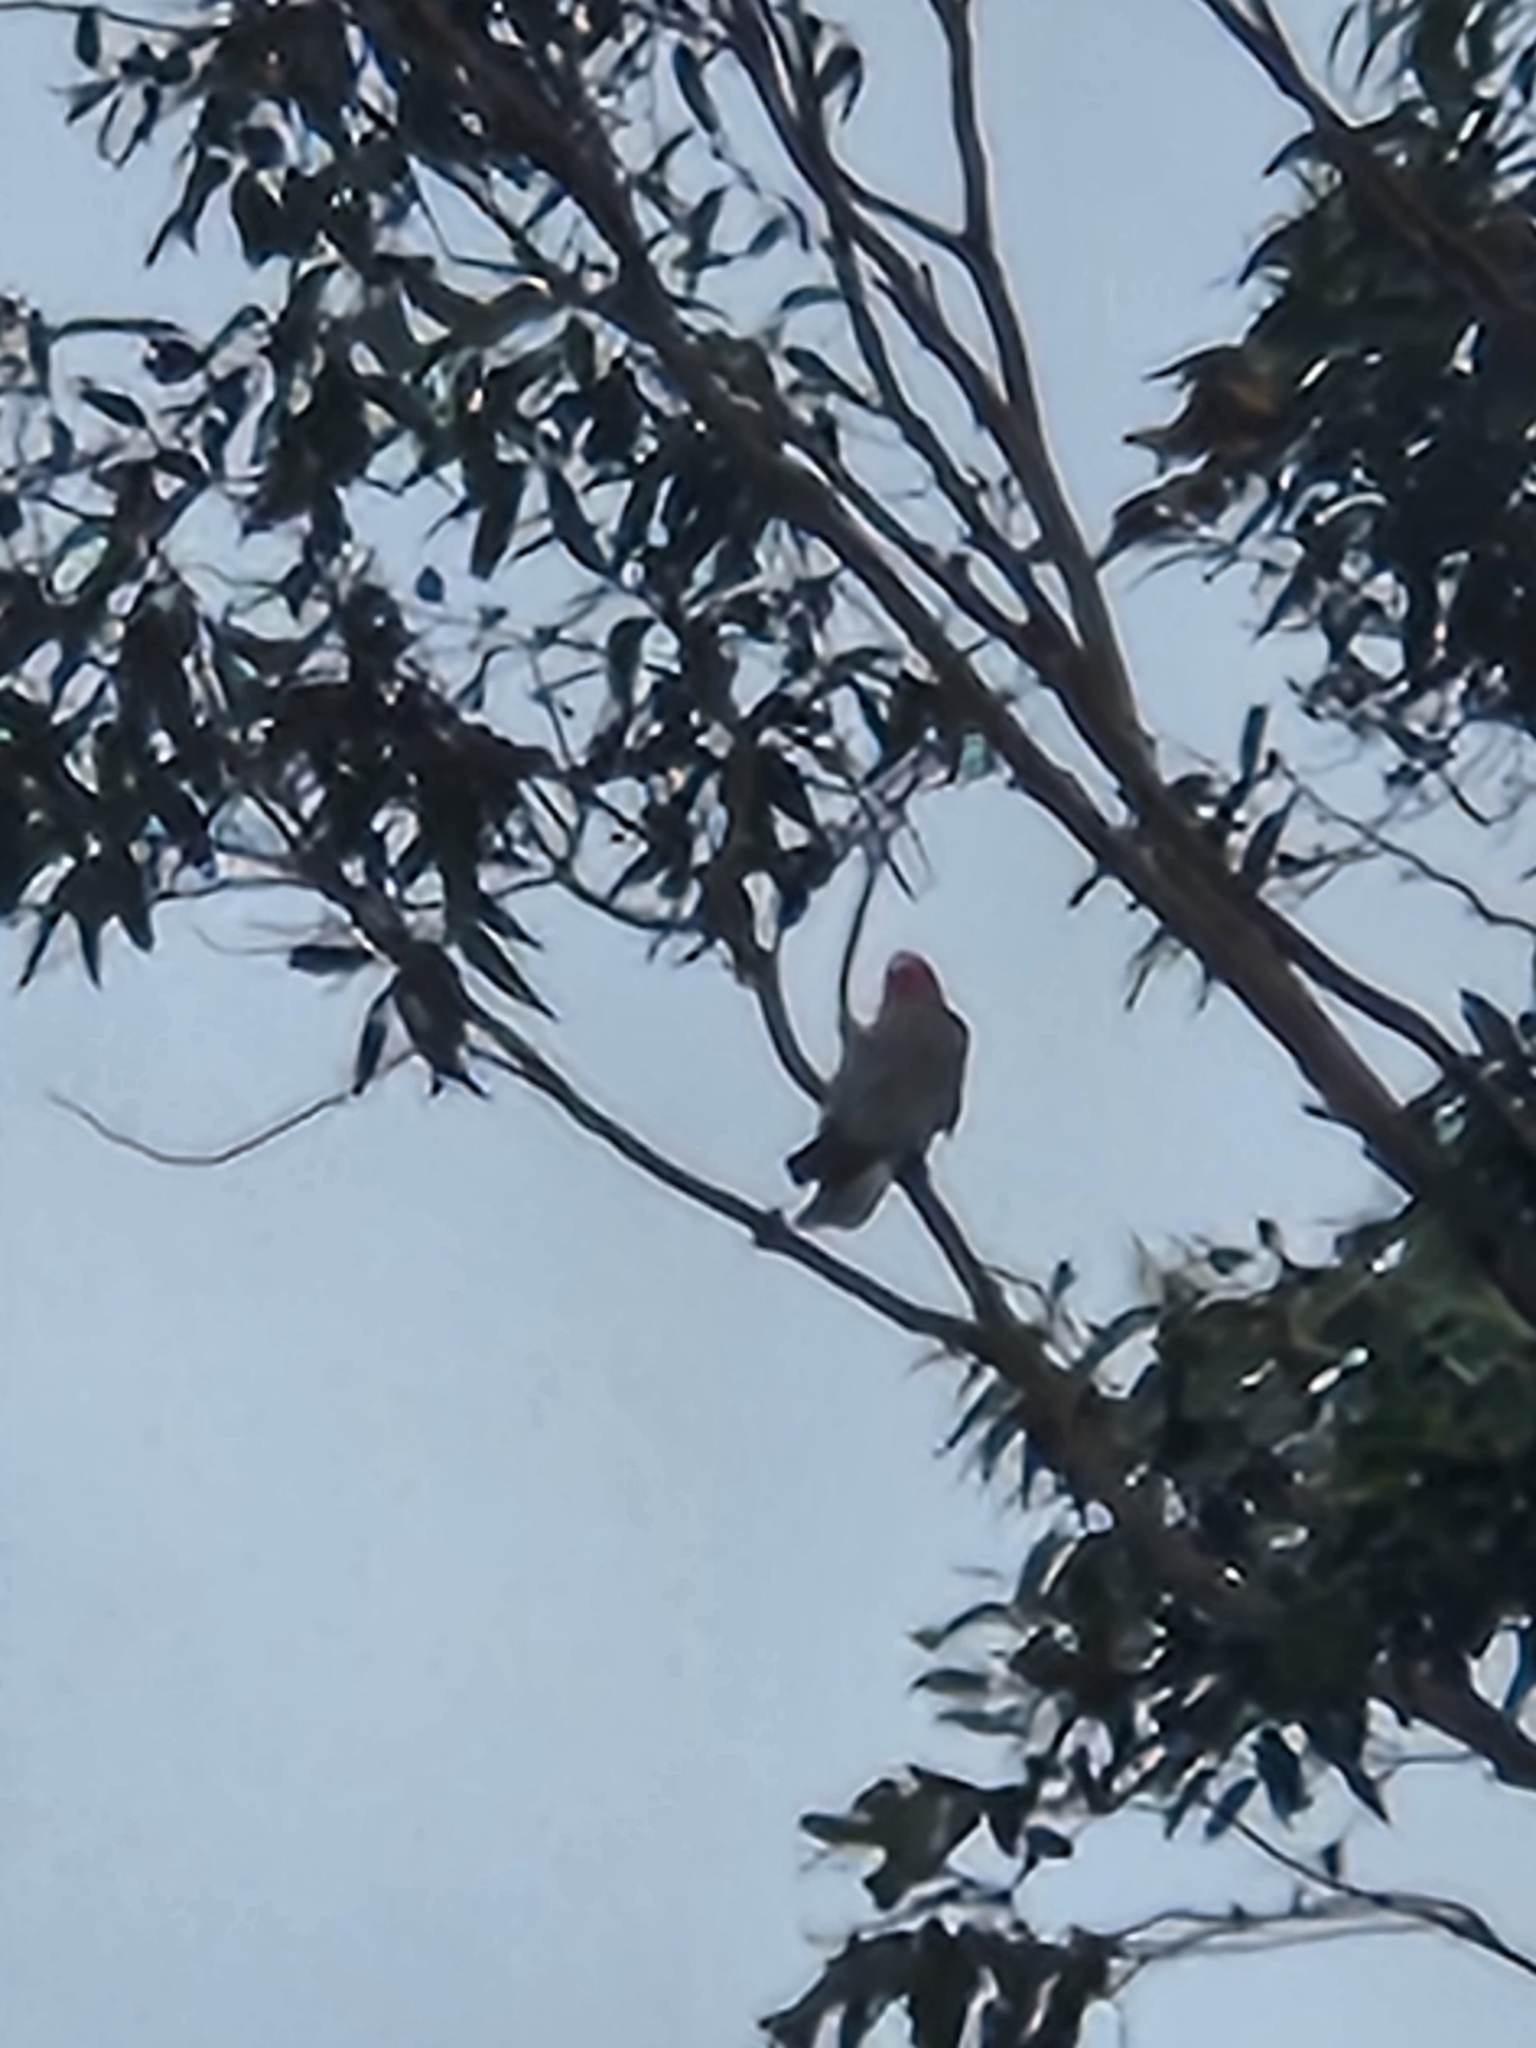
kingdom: Animalia
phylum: Chordata
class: Aves
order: Psittaciformes
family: Psittacidae
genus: Eolophus
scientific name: Eolophus roseicapilla
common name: Galah
